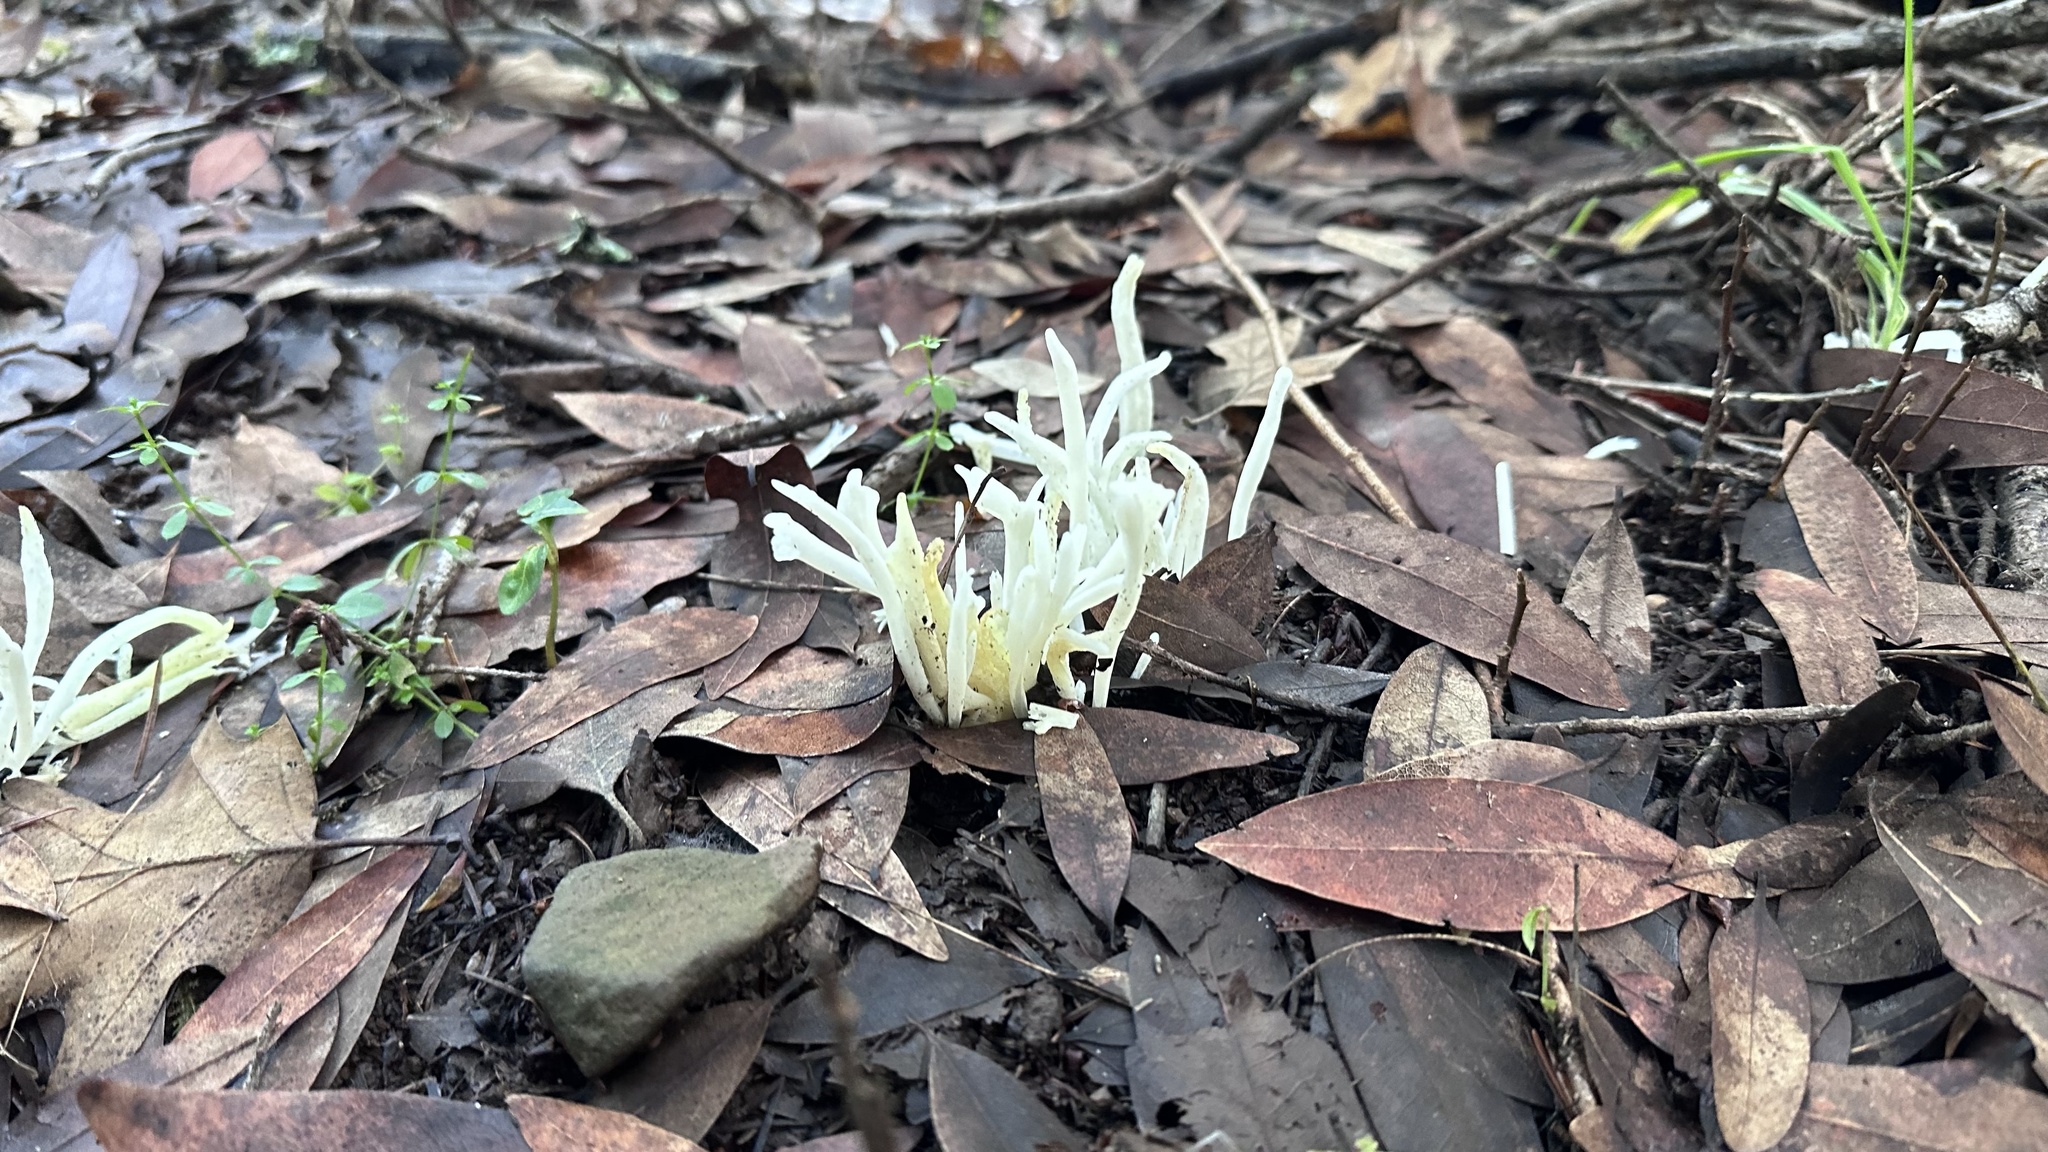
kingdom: Fungi
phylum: Basidiomycota
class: Agaricomycetes
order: Agaricales
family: Clavariaceae
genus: Clavaria
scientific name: Clavaria fragilis
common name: White spindles
